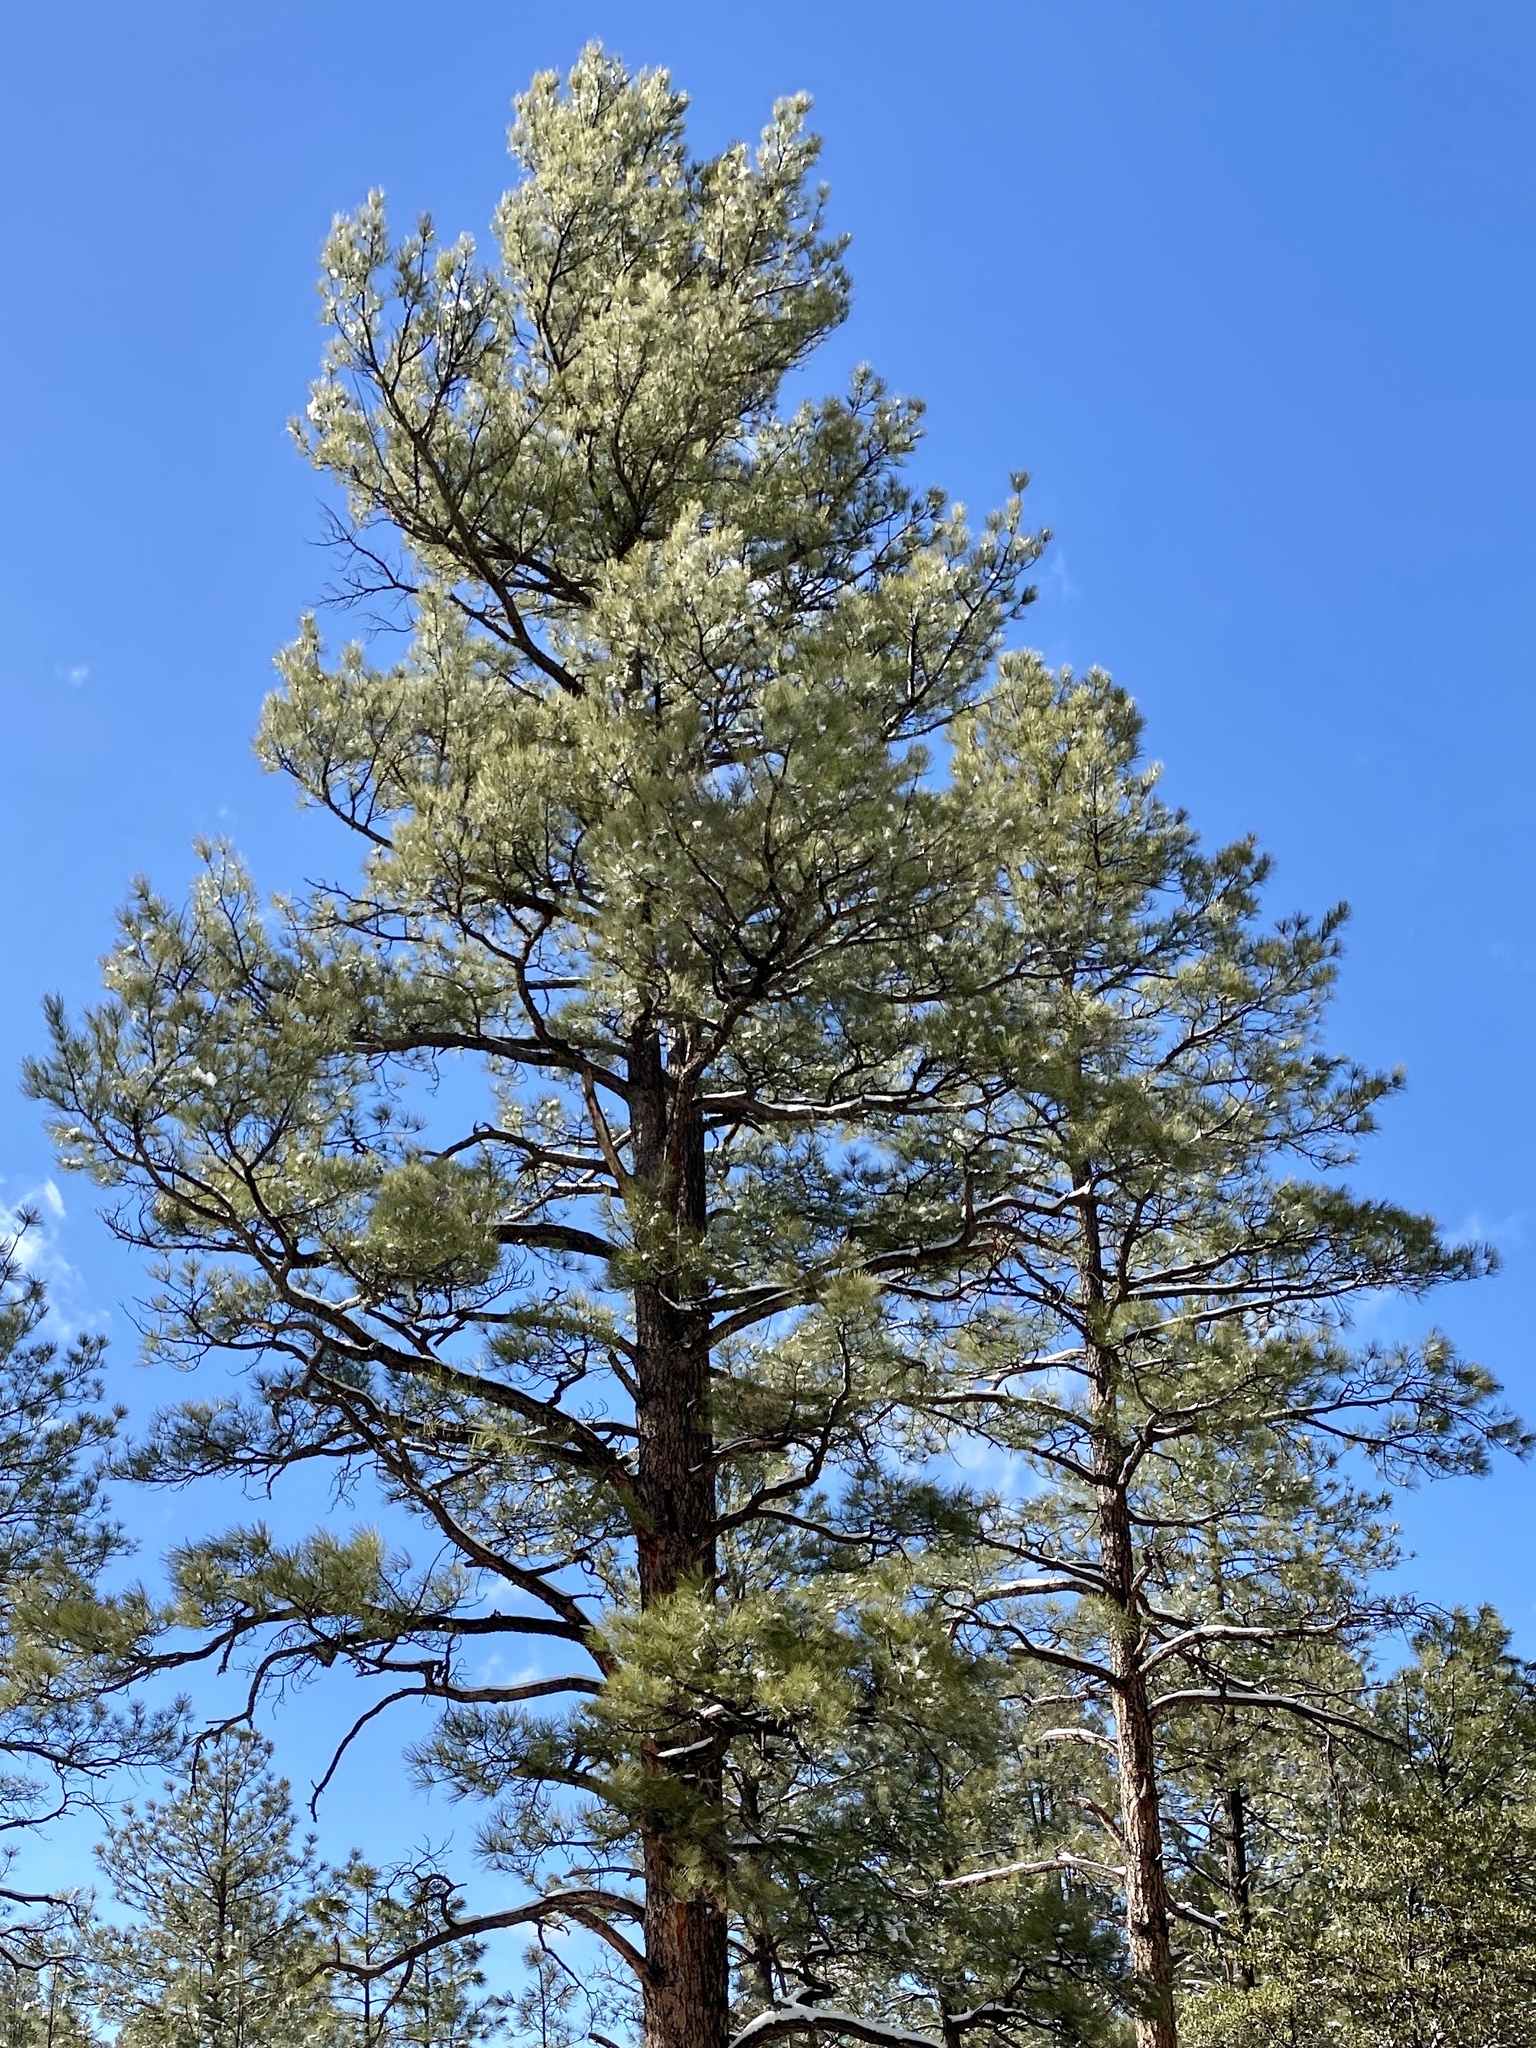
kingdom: Plantae
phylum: Tracheophyta
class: Pinopsida
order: Pinales
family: Pinaceae
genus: Pinus
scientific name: Pinus ponderosa
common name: Western yellow-pine
